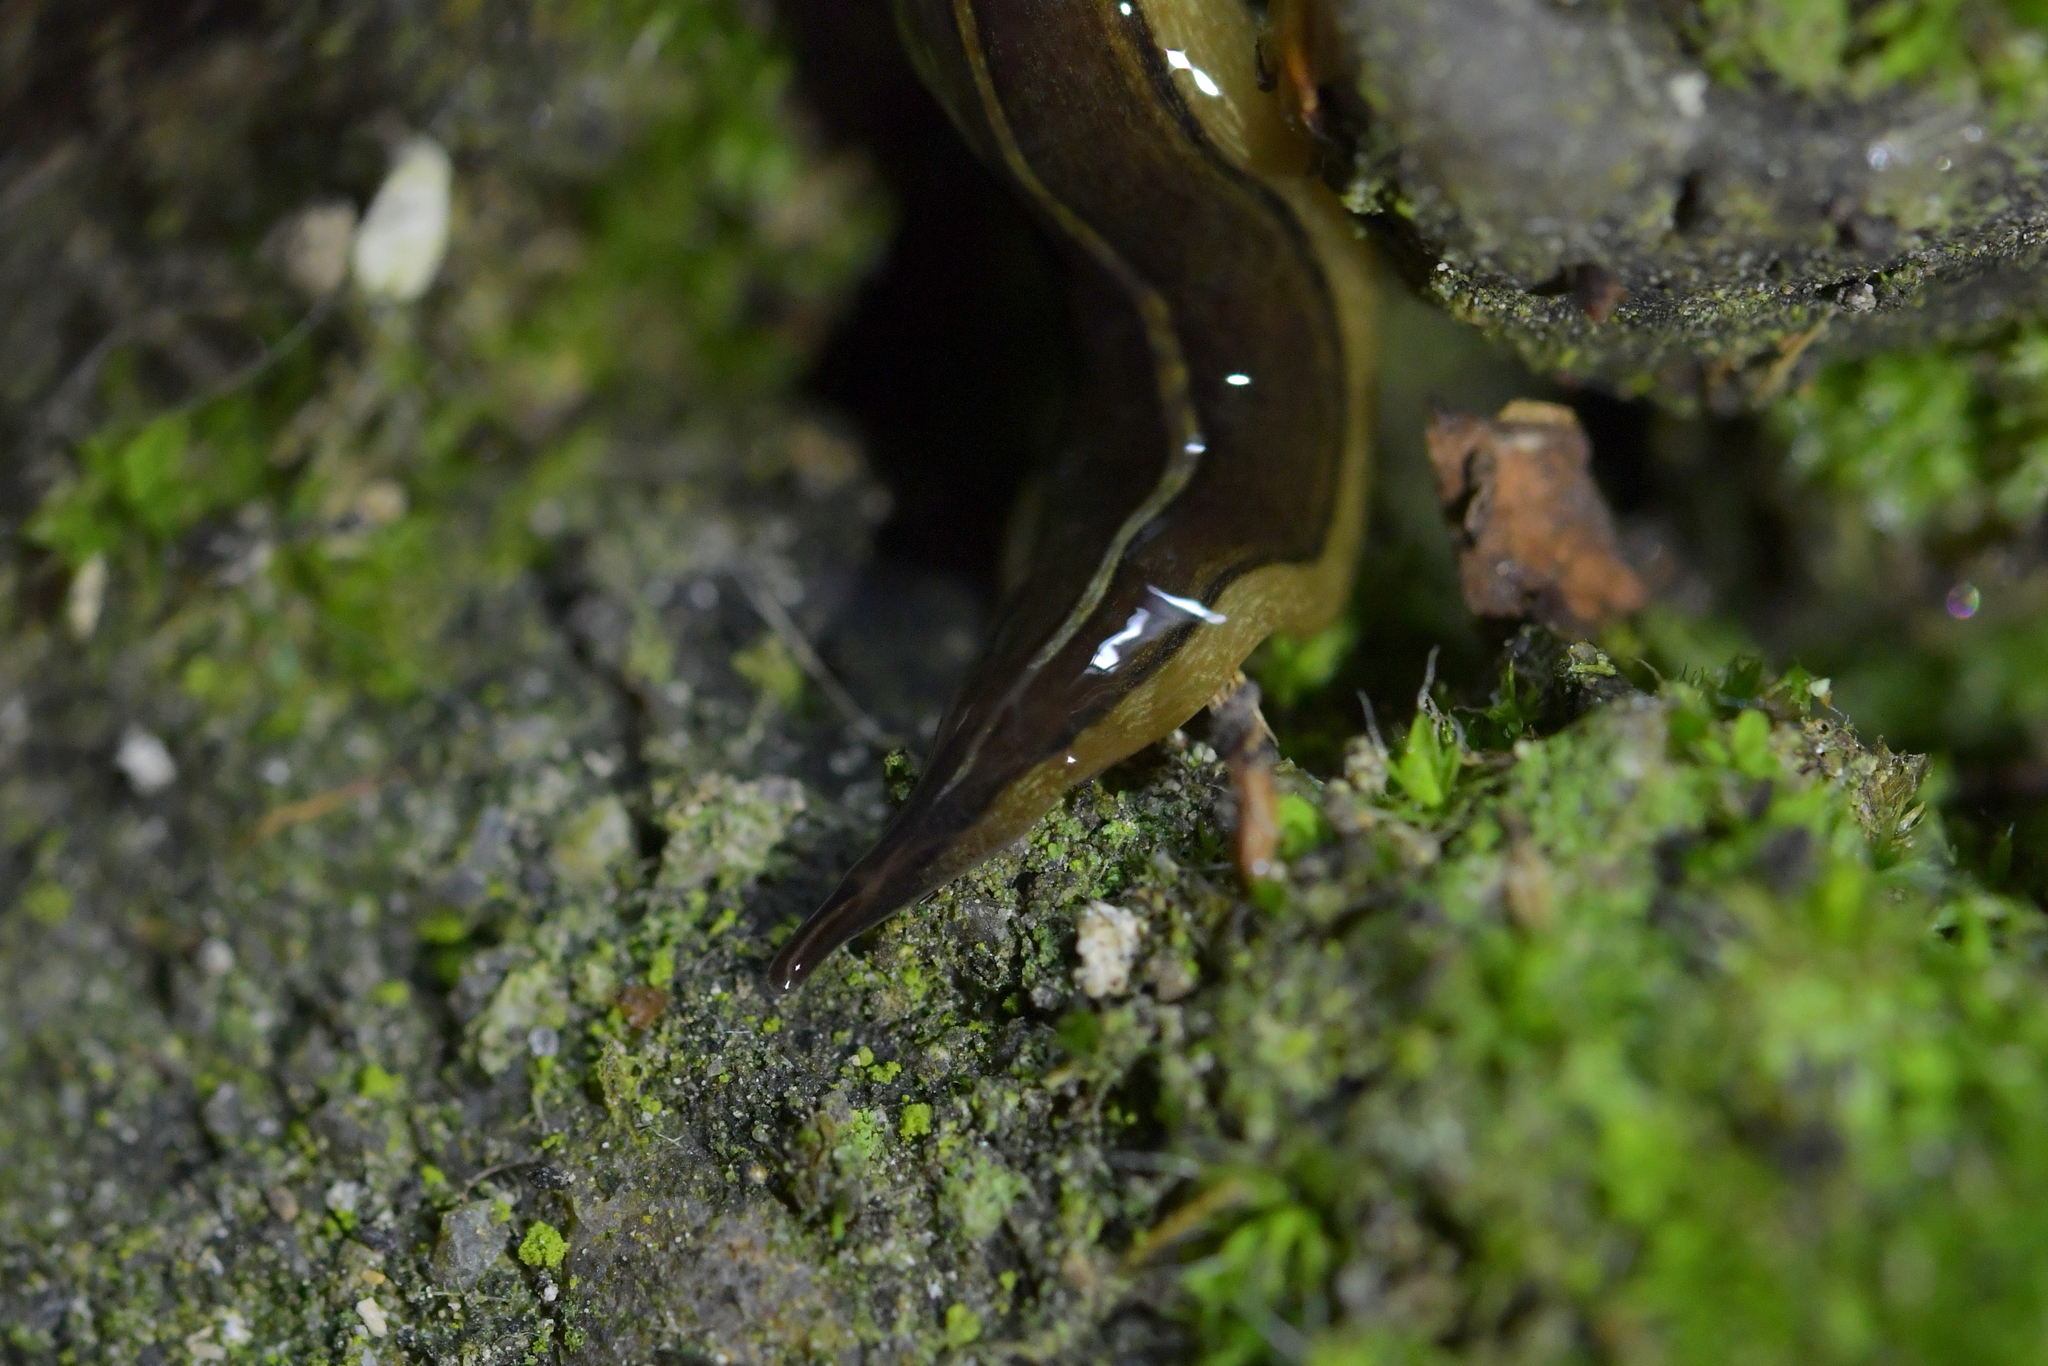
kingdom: Animalia
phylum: Platyhelminthes
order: Tricladida
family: Geoplanidae
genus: Newzealandia
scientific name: Newzealandia graffii
